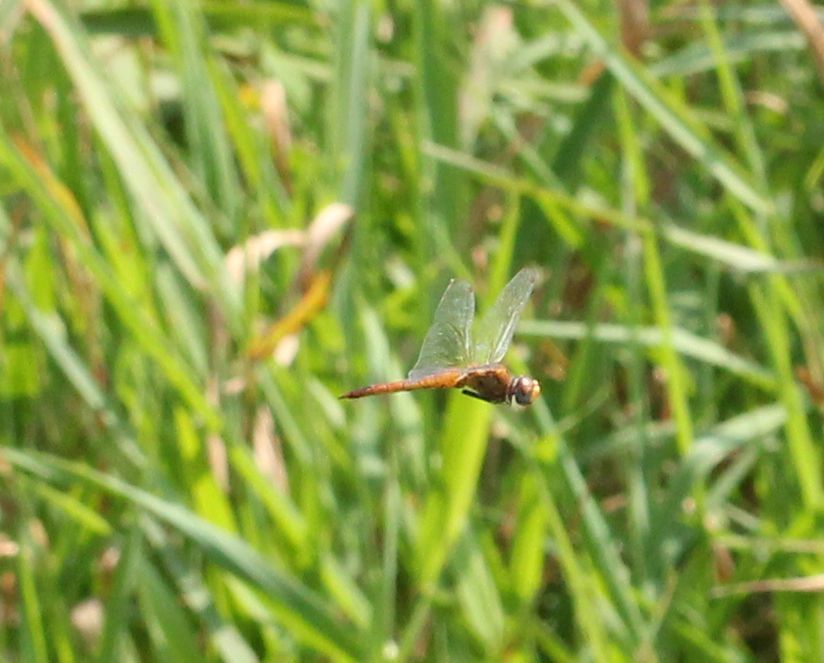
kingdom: Animalia
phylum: Arthropoda
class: Insecta
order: Odonata
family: Libellulidae
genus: Pantala
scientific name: Pantala flavescens
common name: Wandering glider
